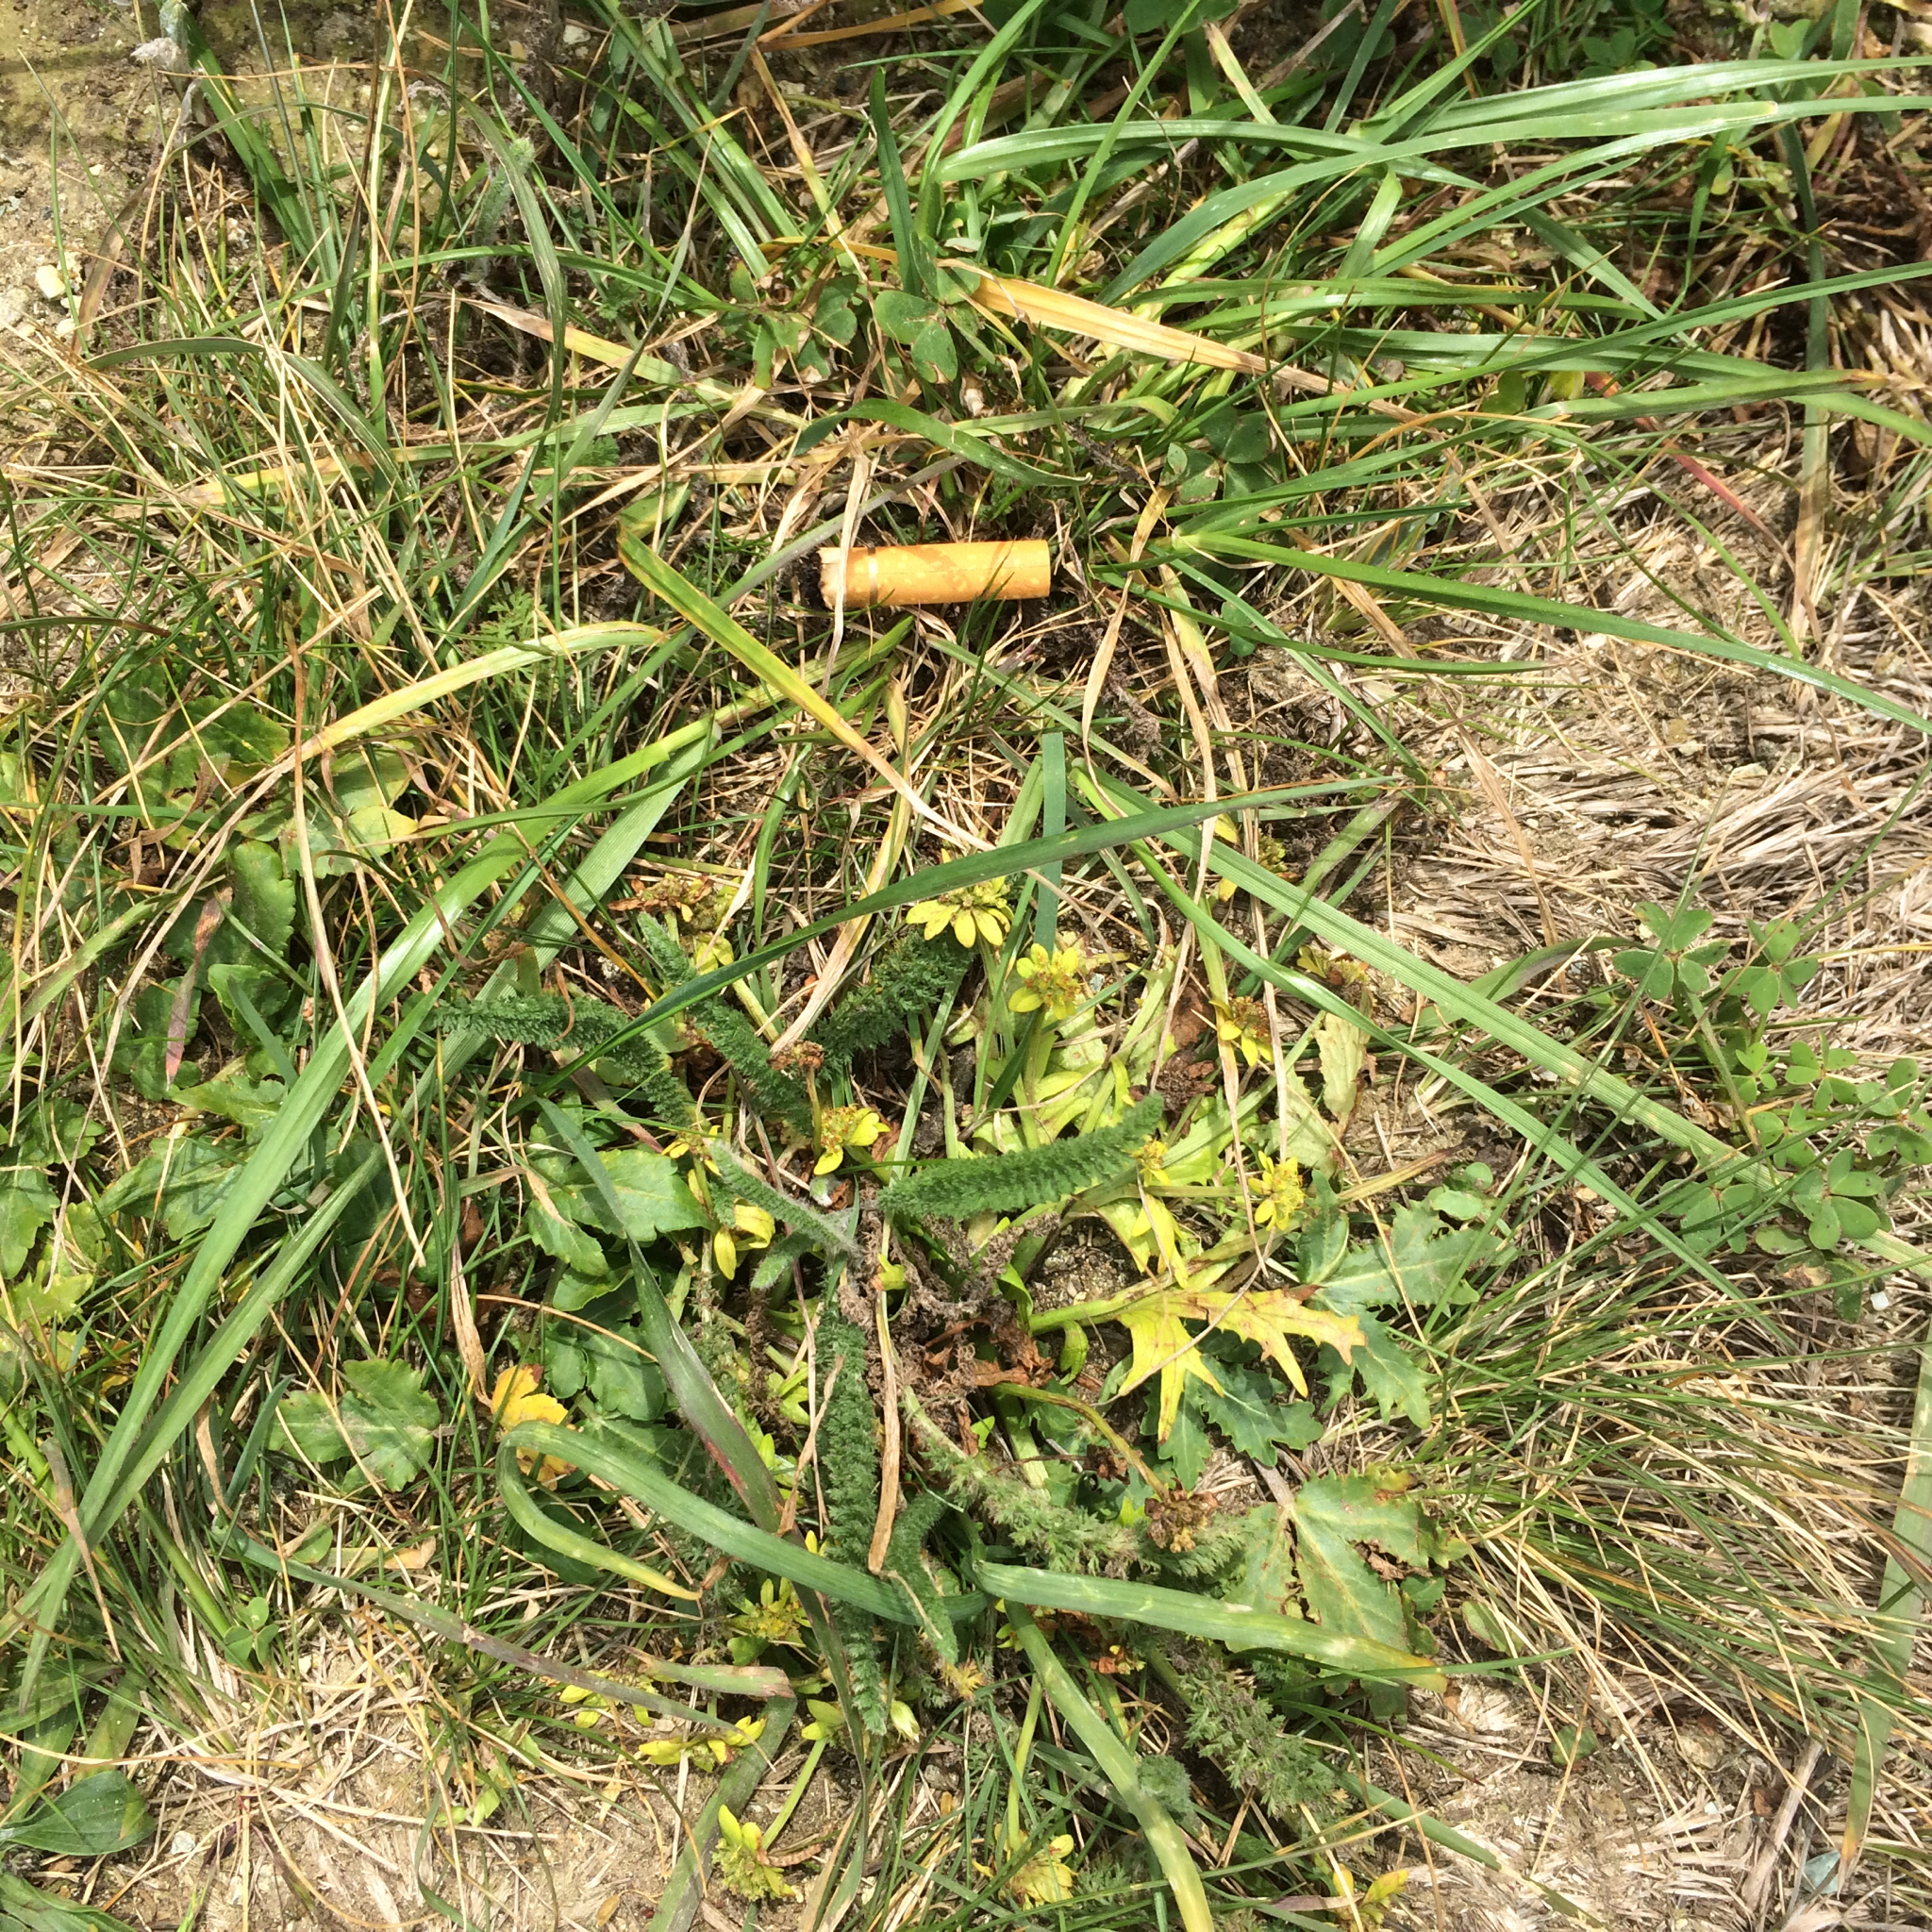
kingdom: Plantae
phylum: Tracheophyta
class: Magnoliopsida
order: Apiales
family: Apiaceae
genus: Sanicula
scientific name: Sanicula arctopoides
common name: Footsteps-of-spring
